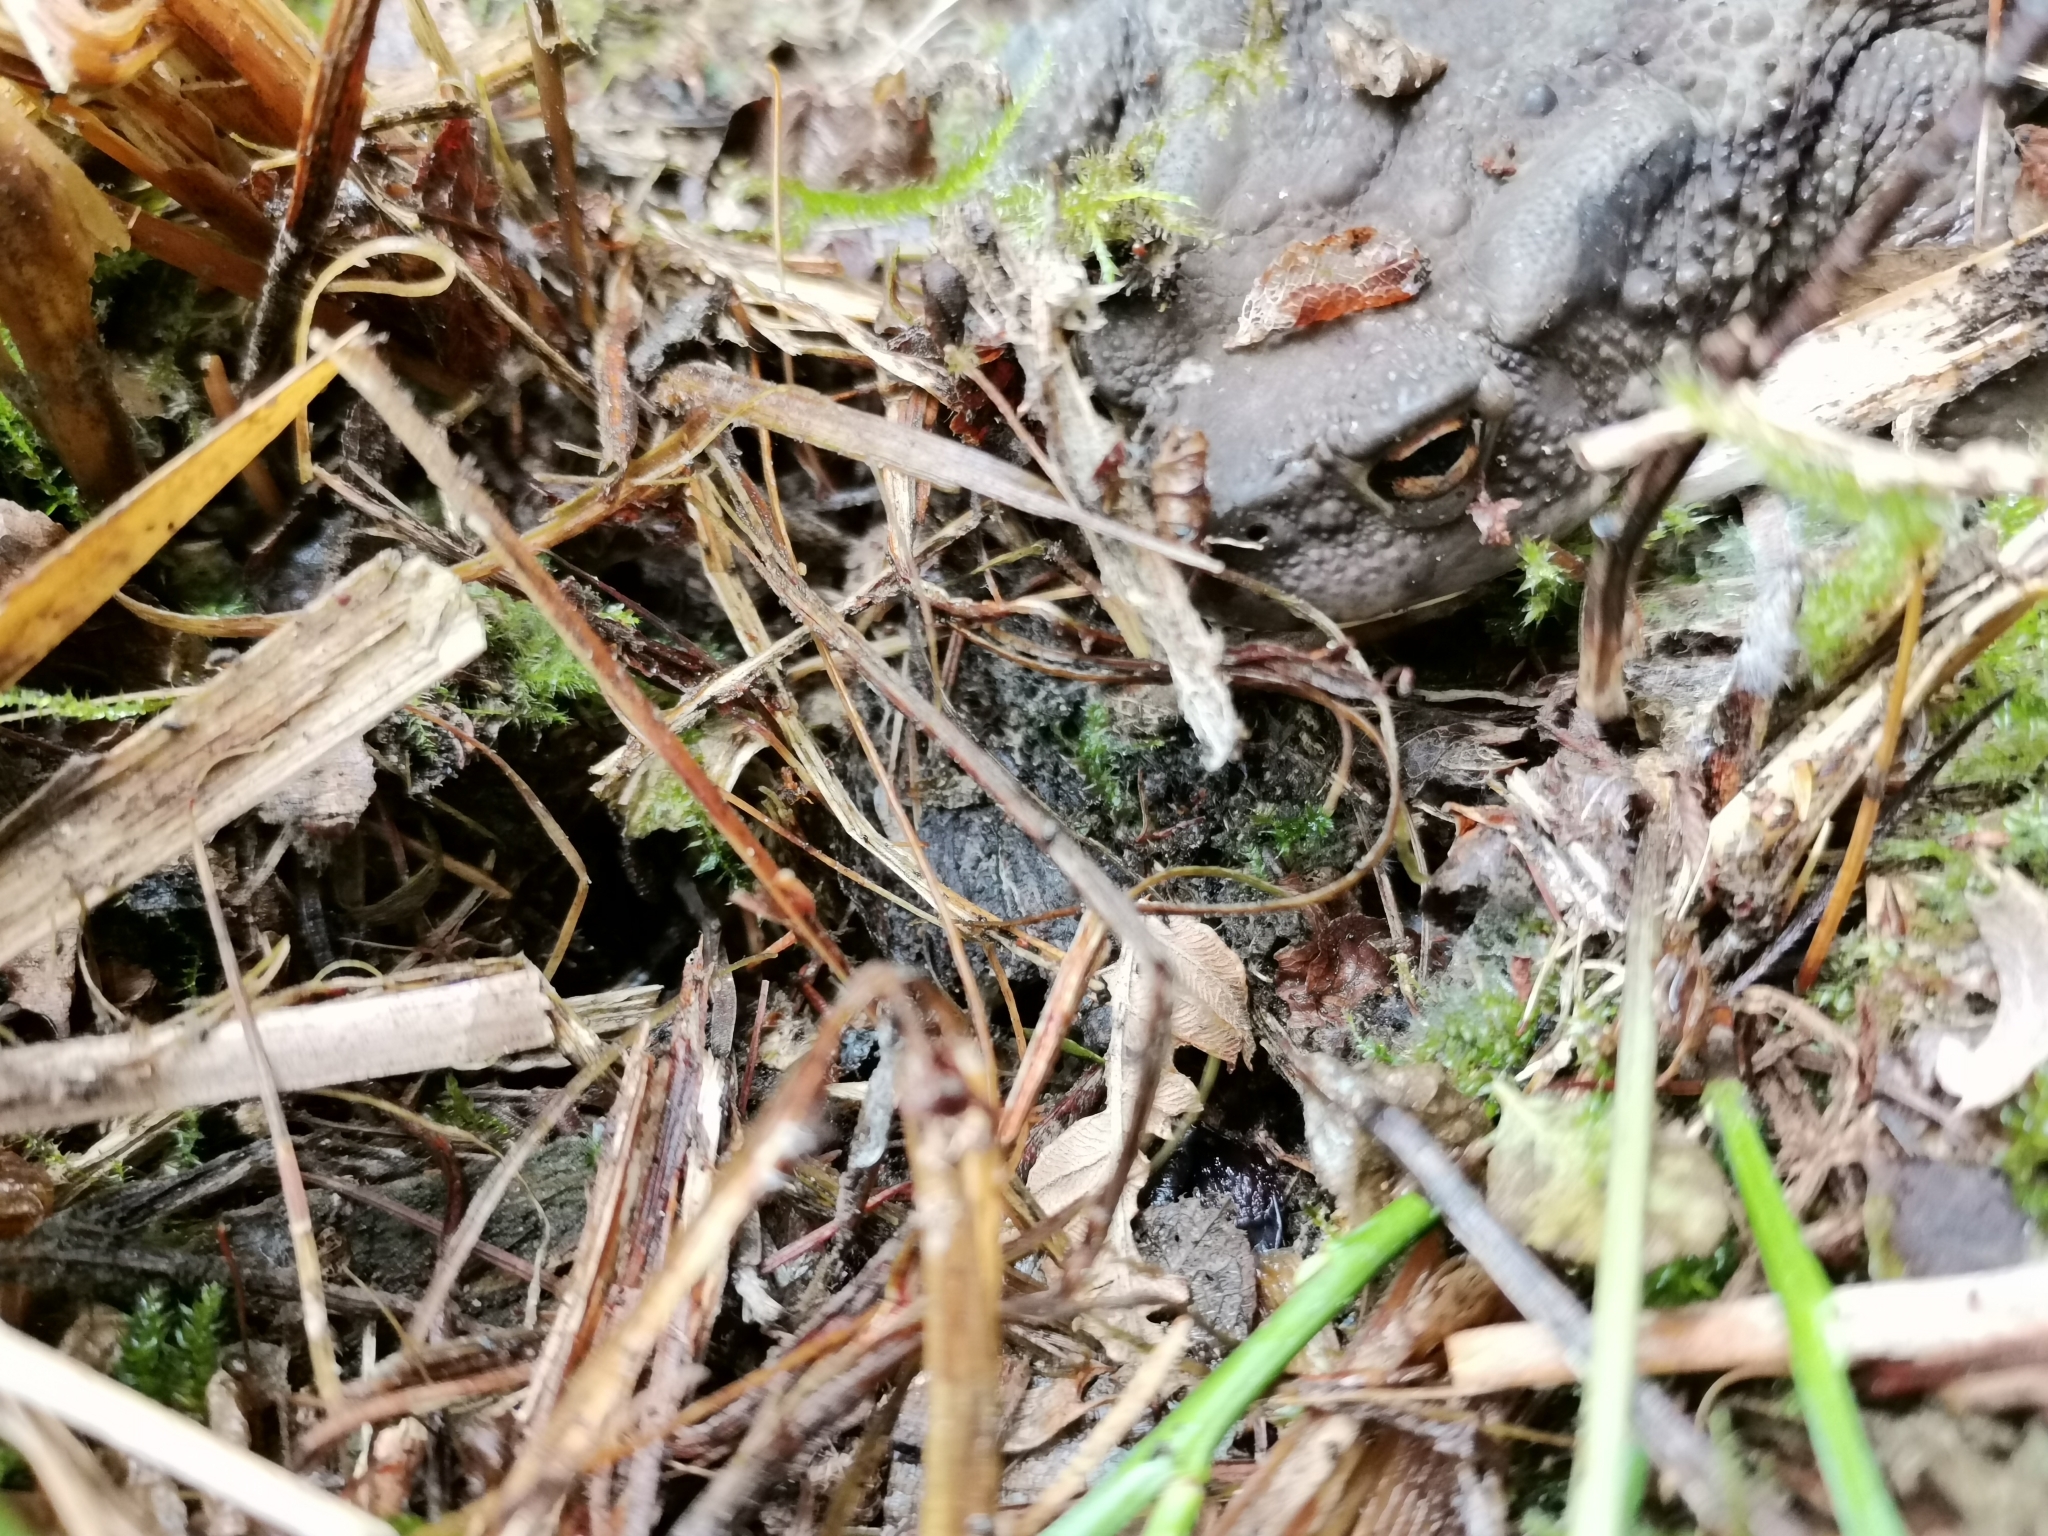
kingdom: Animalia
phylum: Chordata
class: Amphibia
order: Anura
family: Bufonidae
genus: Bufo
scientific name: Bufo bufo
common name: Common toad
